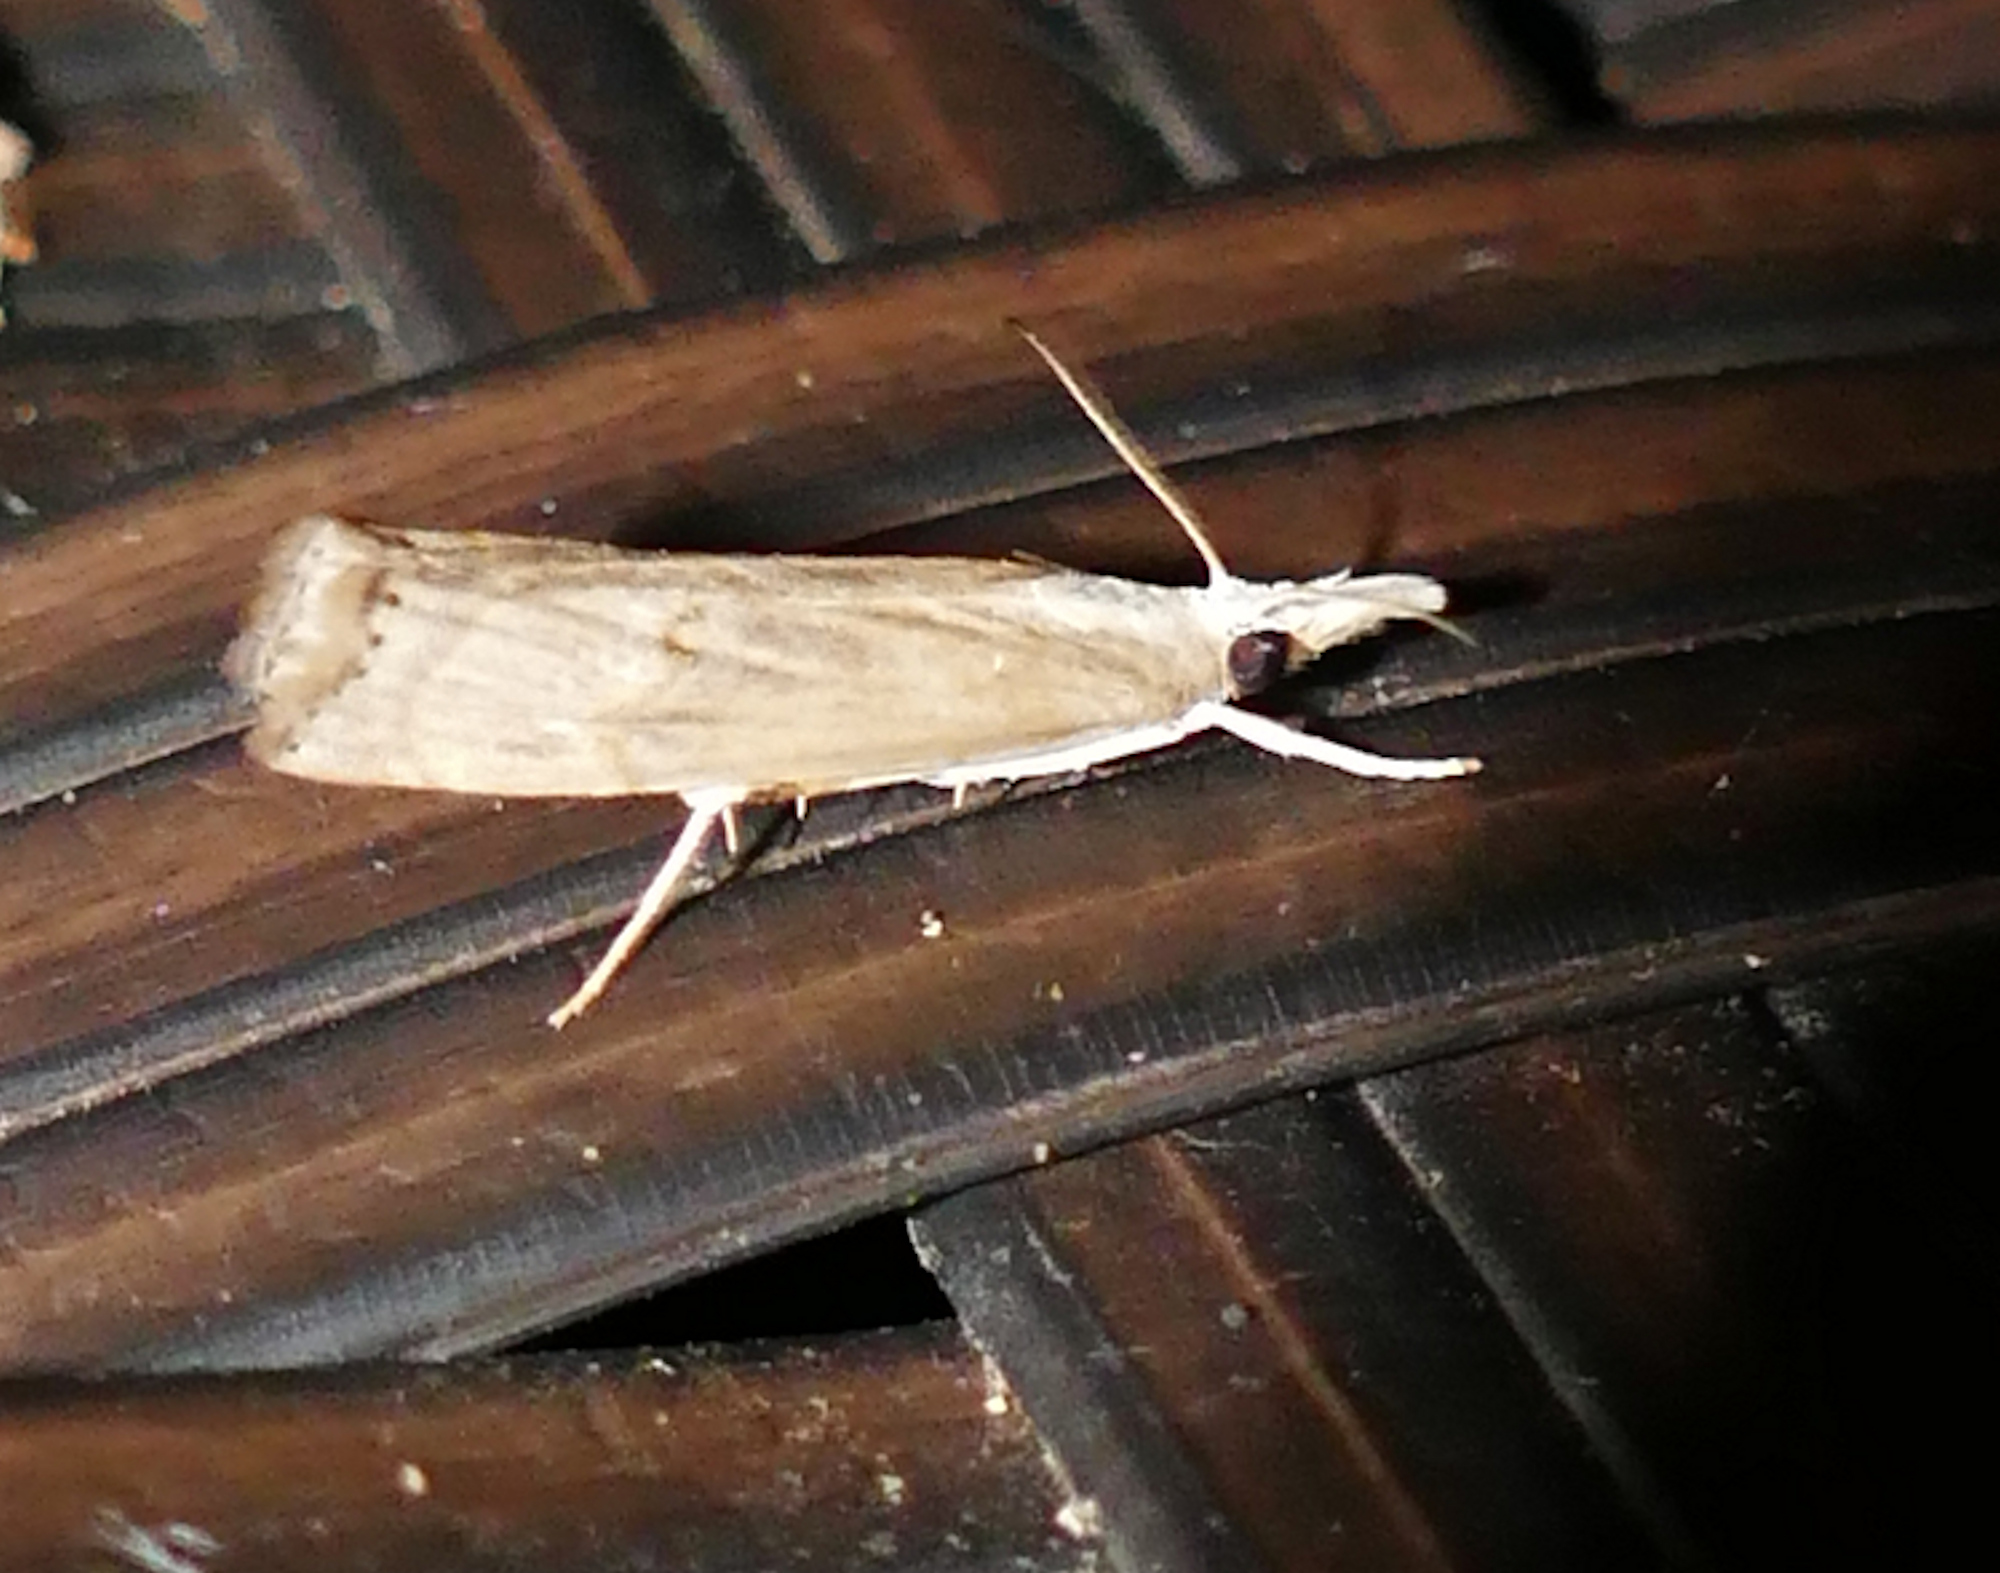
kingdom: Animalia
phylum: Arthropoda
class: Insecta
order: Lepidoptera
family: Crambidae
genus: Parapediasia
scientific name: Parapediasia teterellus
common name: Bluegrass webworm moth
